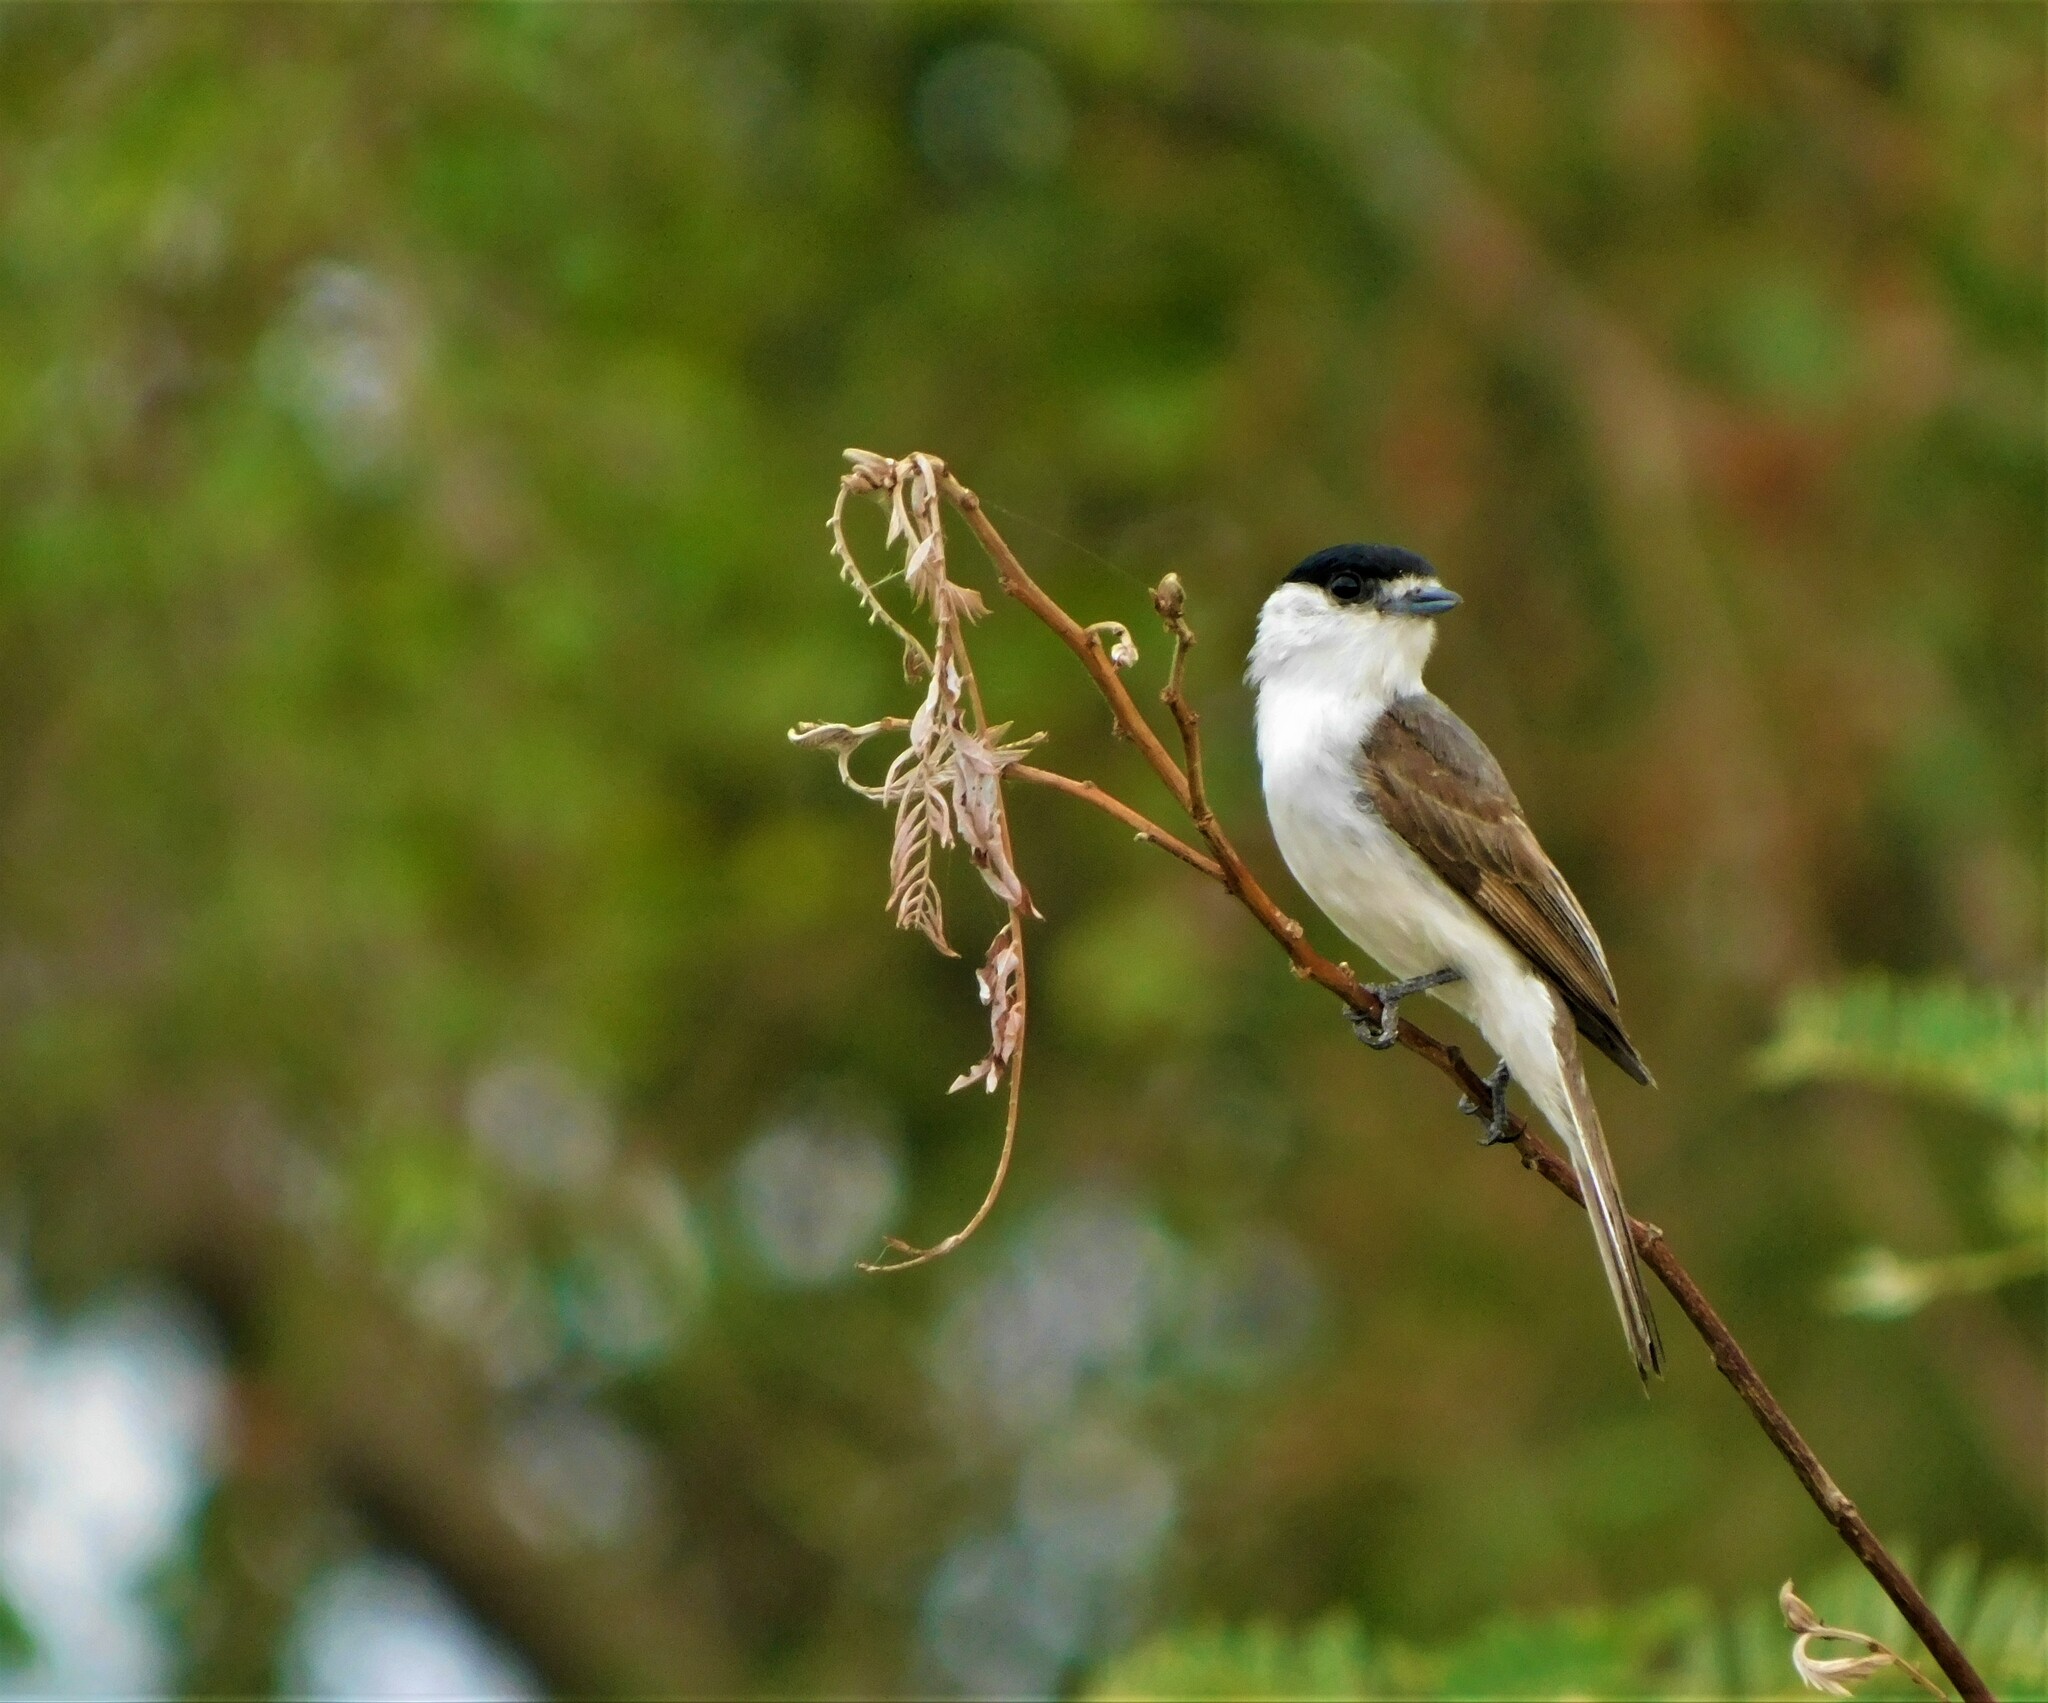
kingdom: Animalia
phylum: Chordata
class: Aves
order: Passeriformes
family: Cotingidae
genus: Xenopsaris
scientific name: Xenopsaris albinucha
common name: White-naped xenopsaris
